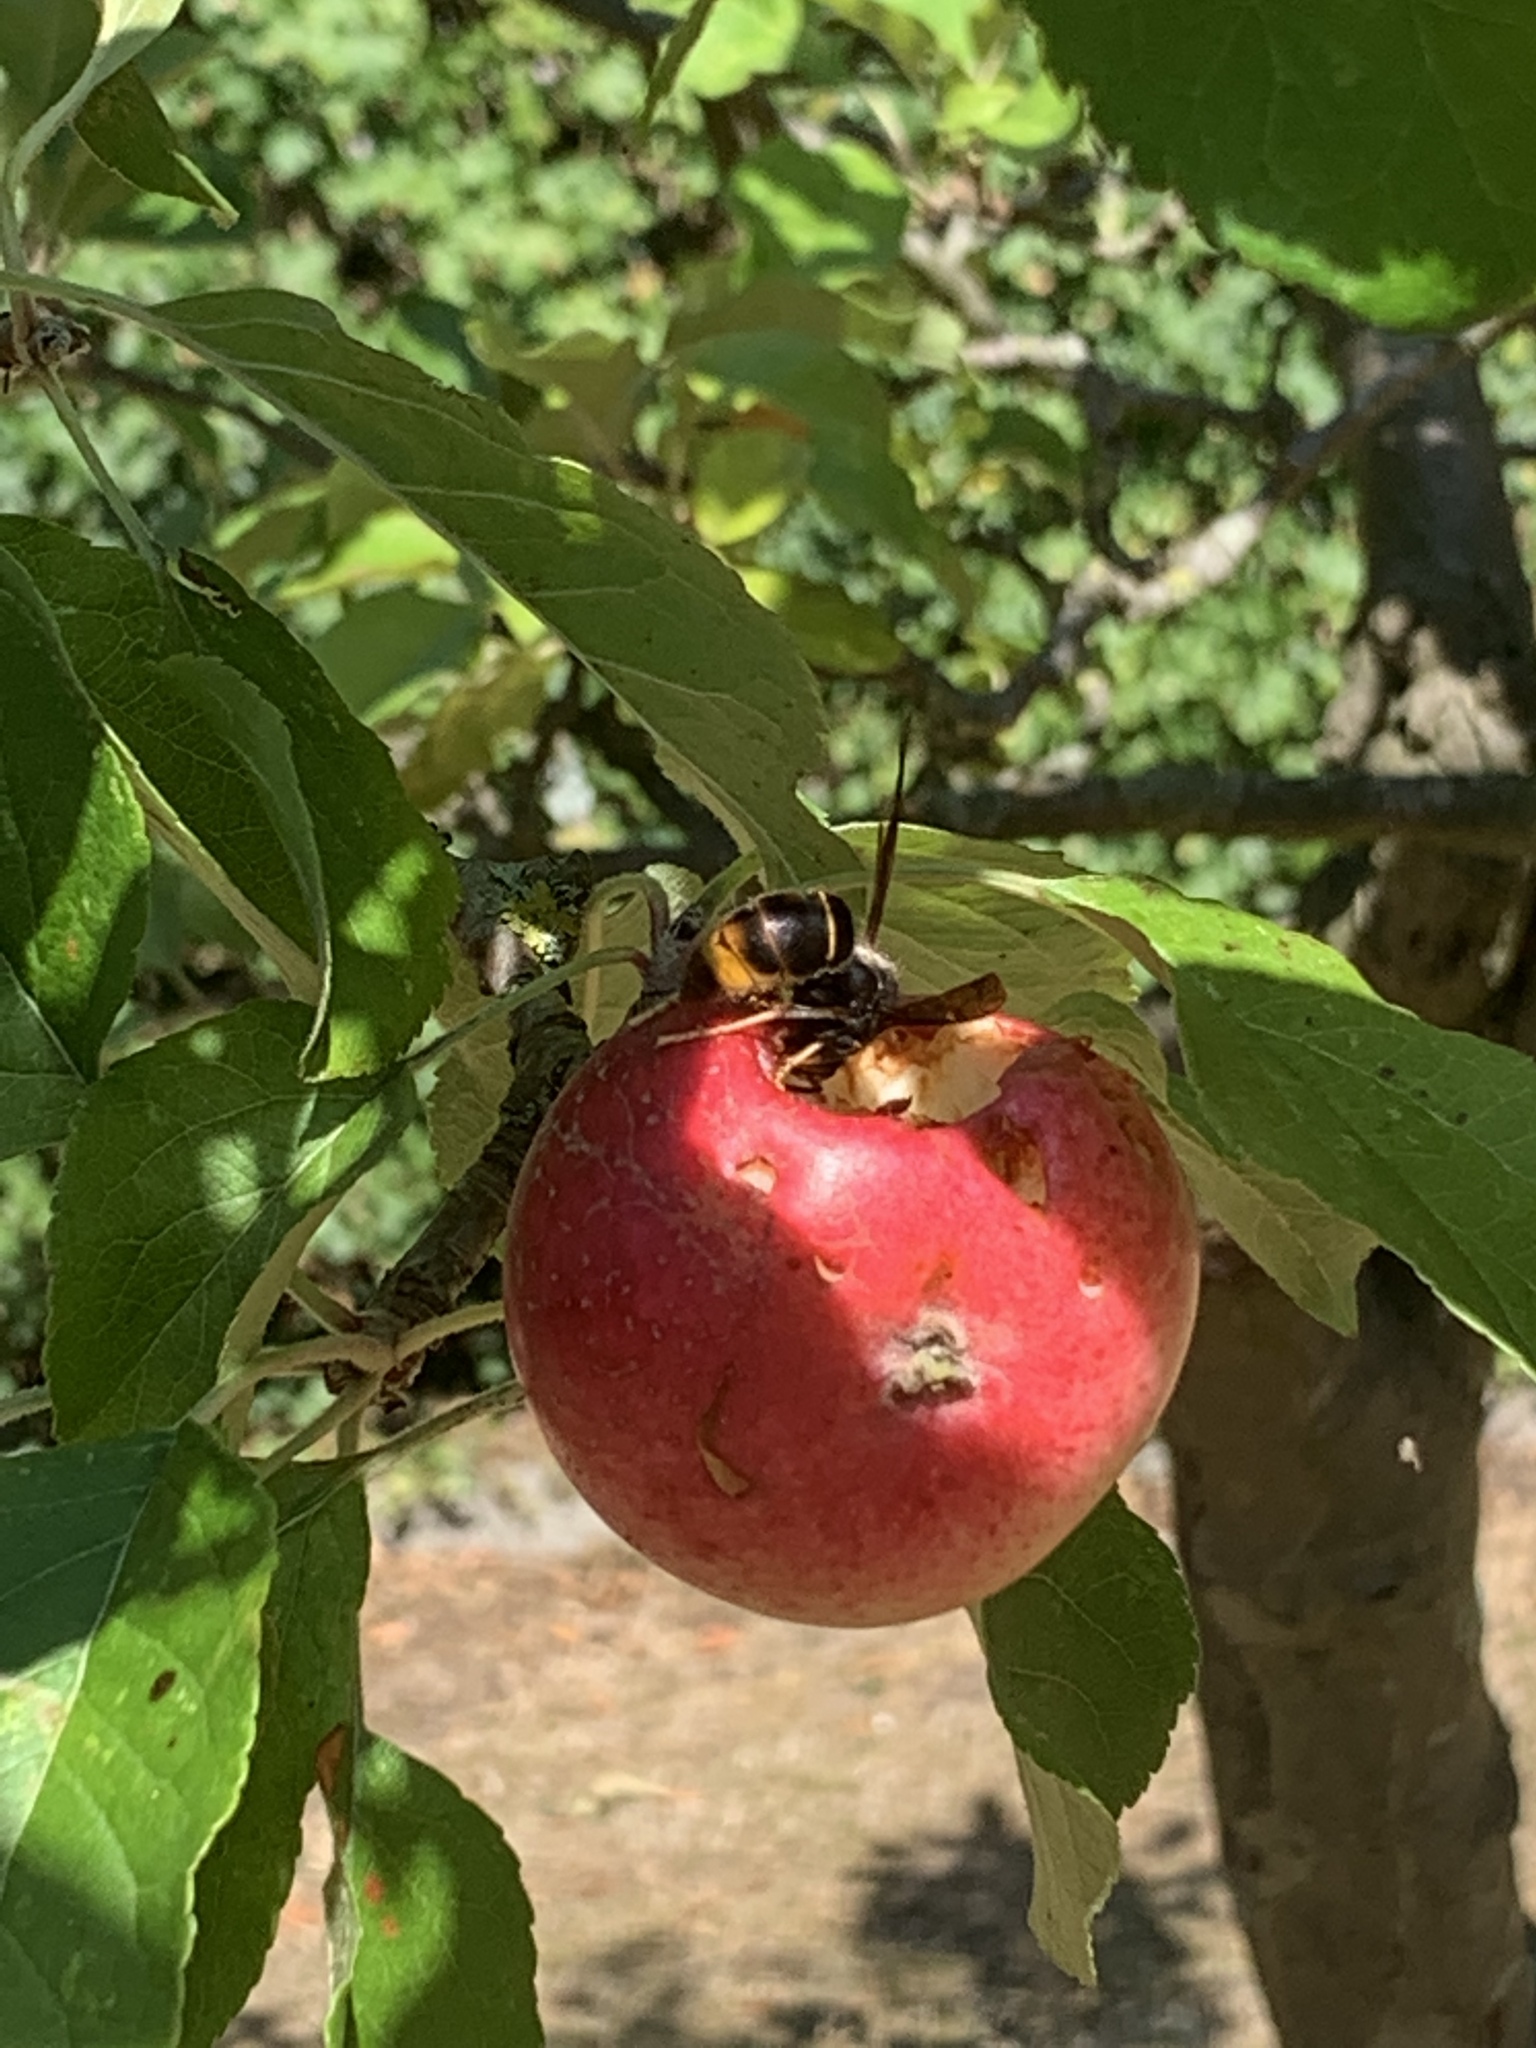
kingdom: Animalia
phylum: Arthropoda
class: Insecta
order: Hymenoptera
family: Vespidae
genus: Vespa
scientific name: Vespa velutina
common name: Asian hornet
